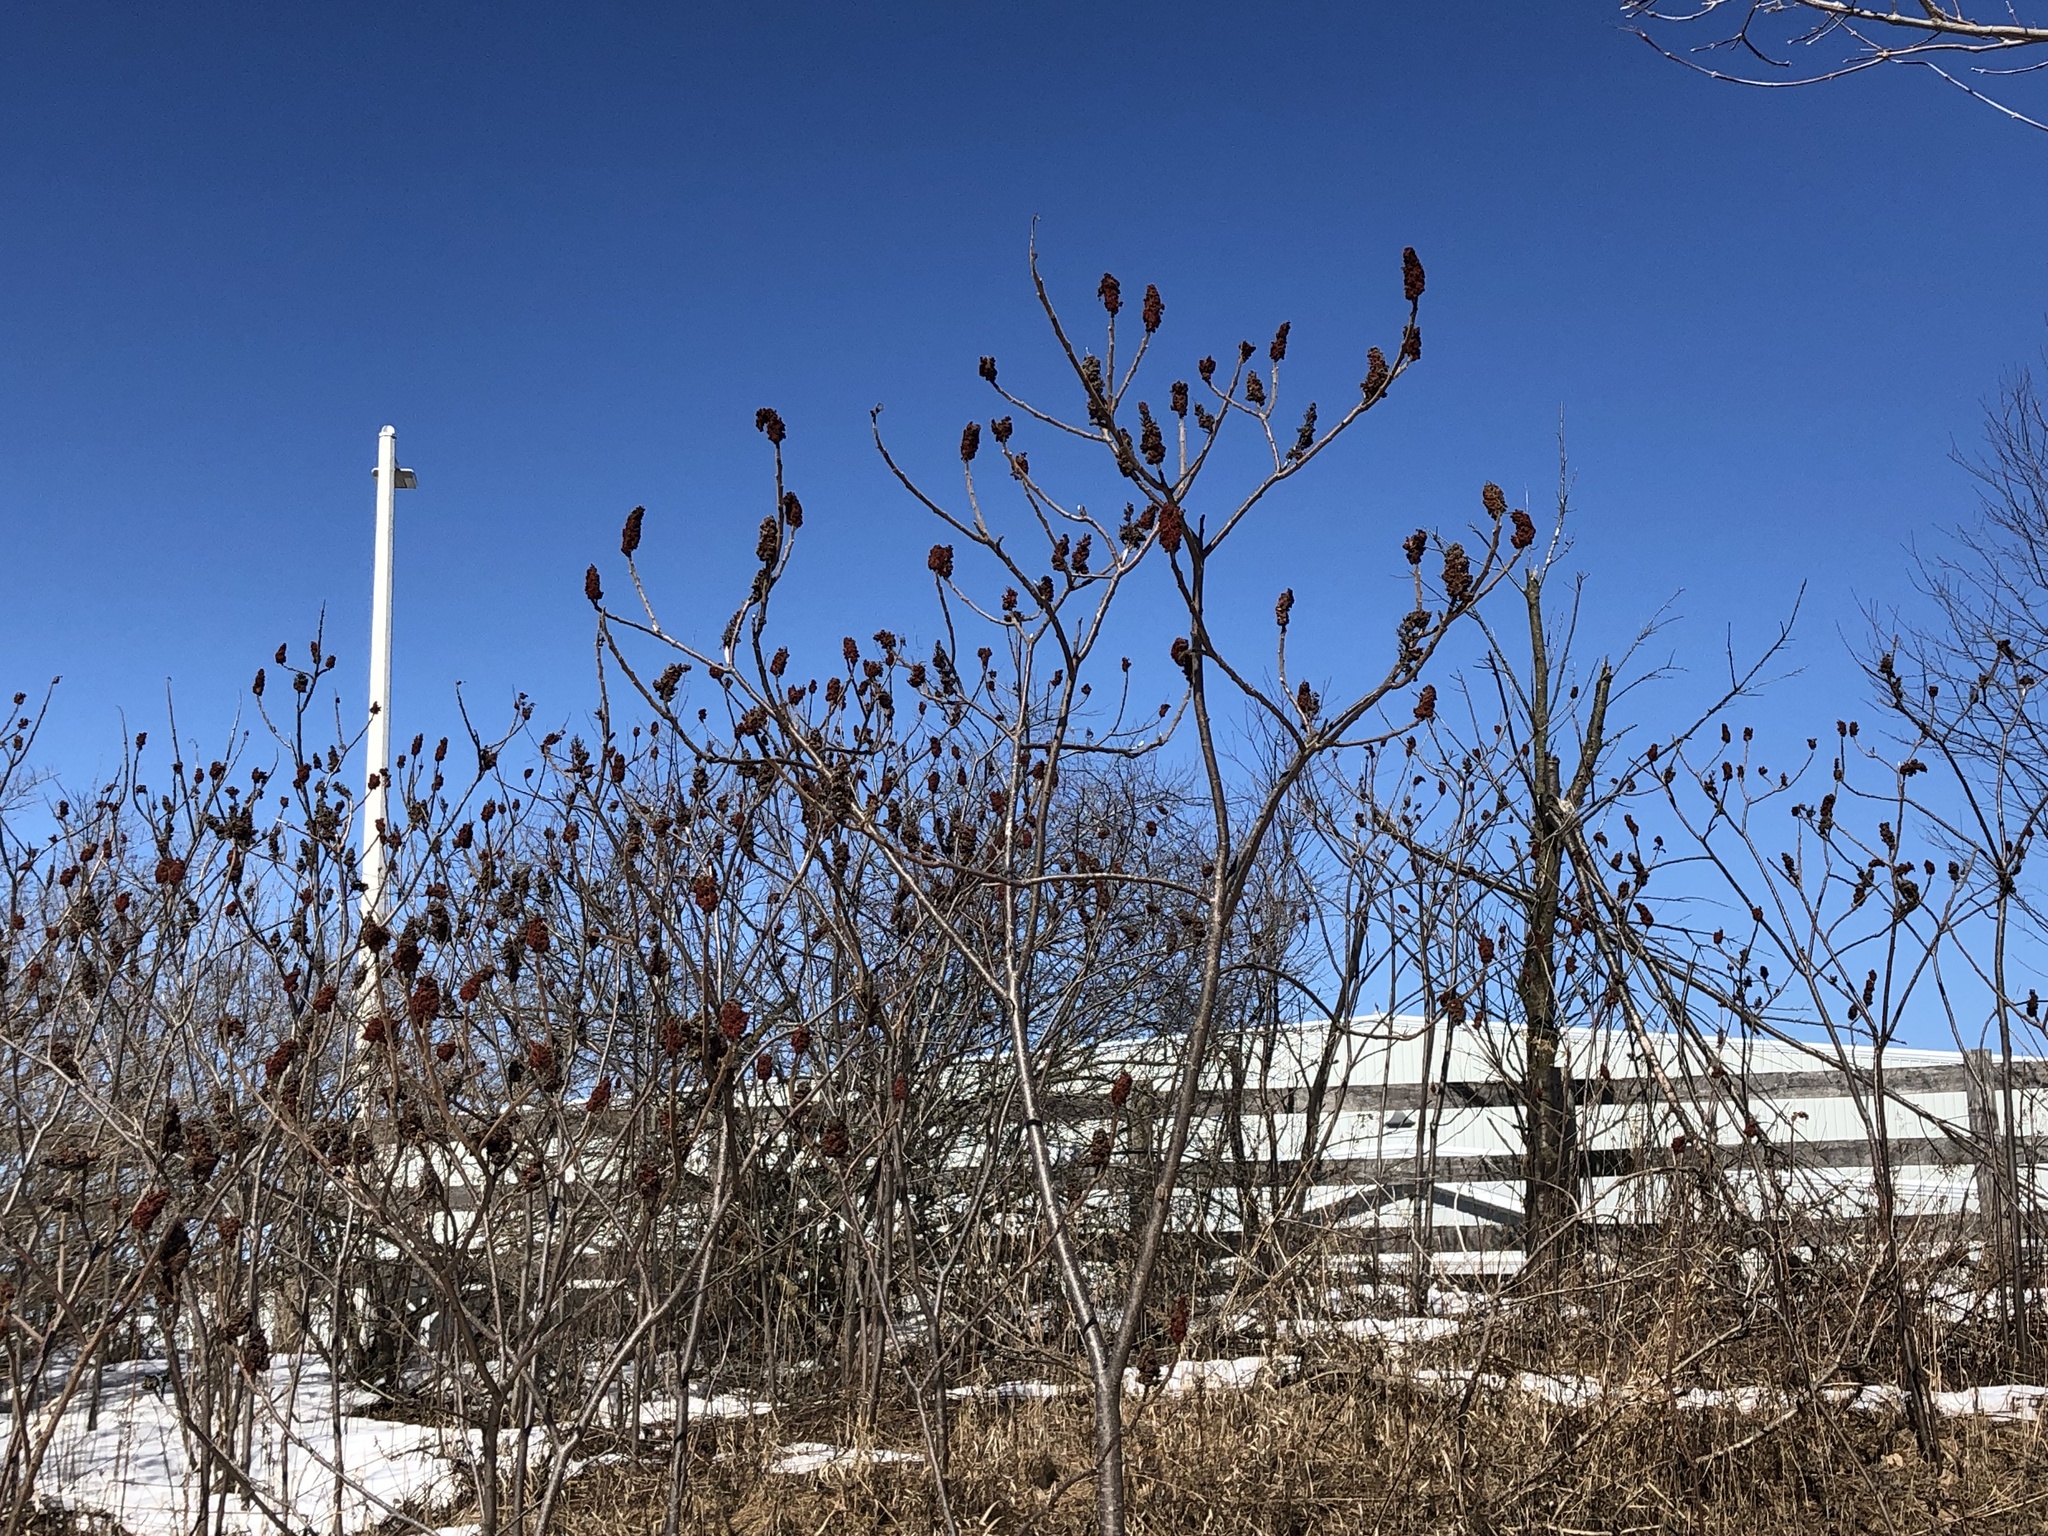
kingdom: Plantae
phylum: Tracheophyta
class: Magnoliopsida
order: Sapindales
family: Anacardiaceae
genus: Rhus
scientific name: Rhus typhina
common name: Staghorn sumac
